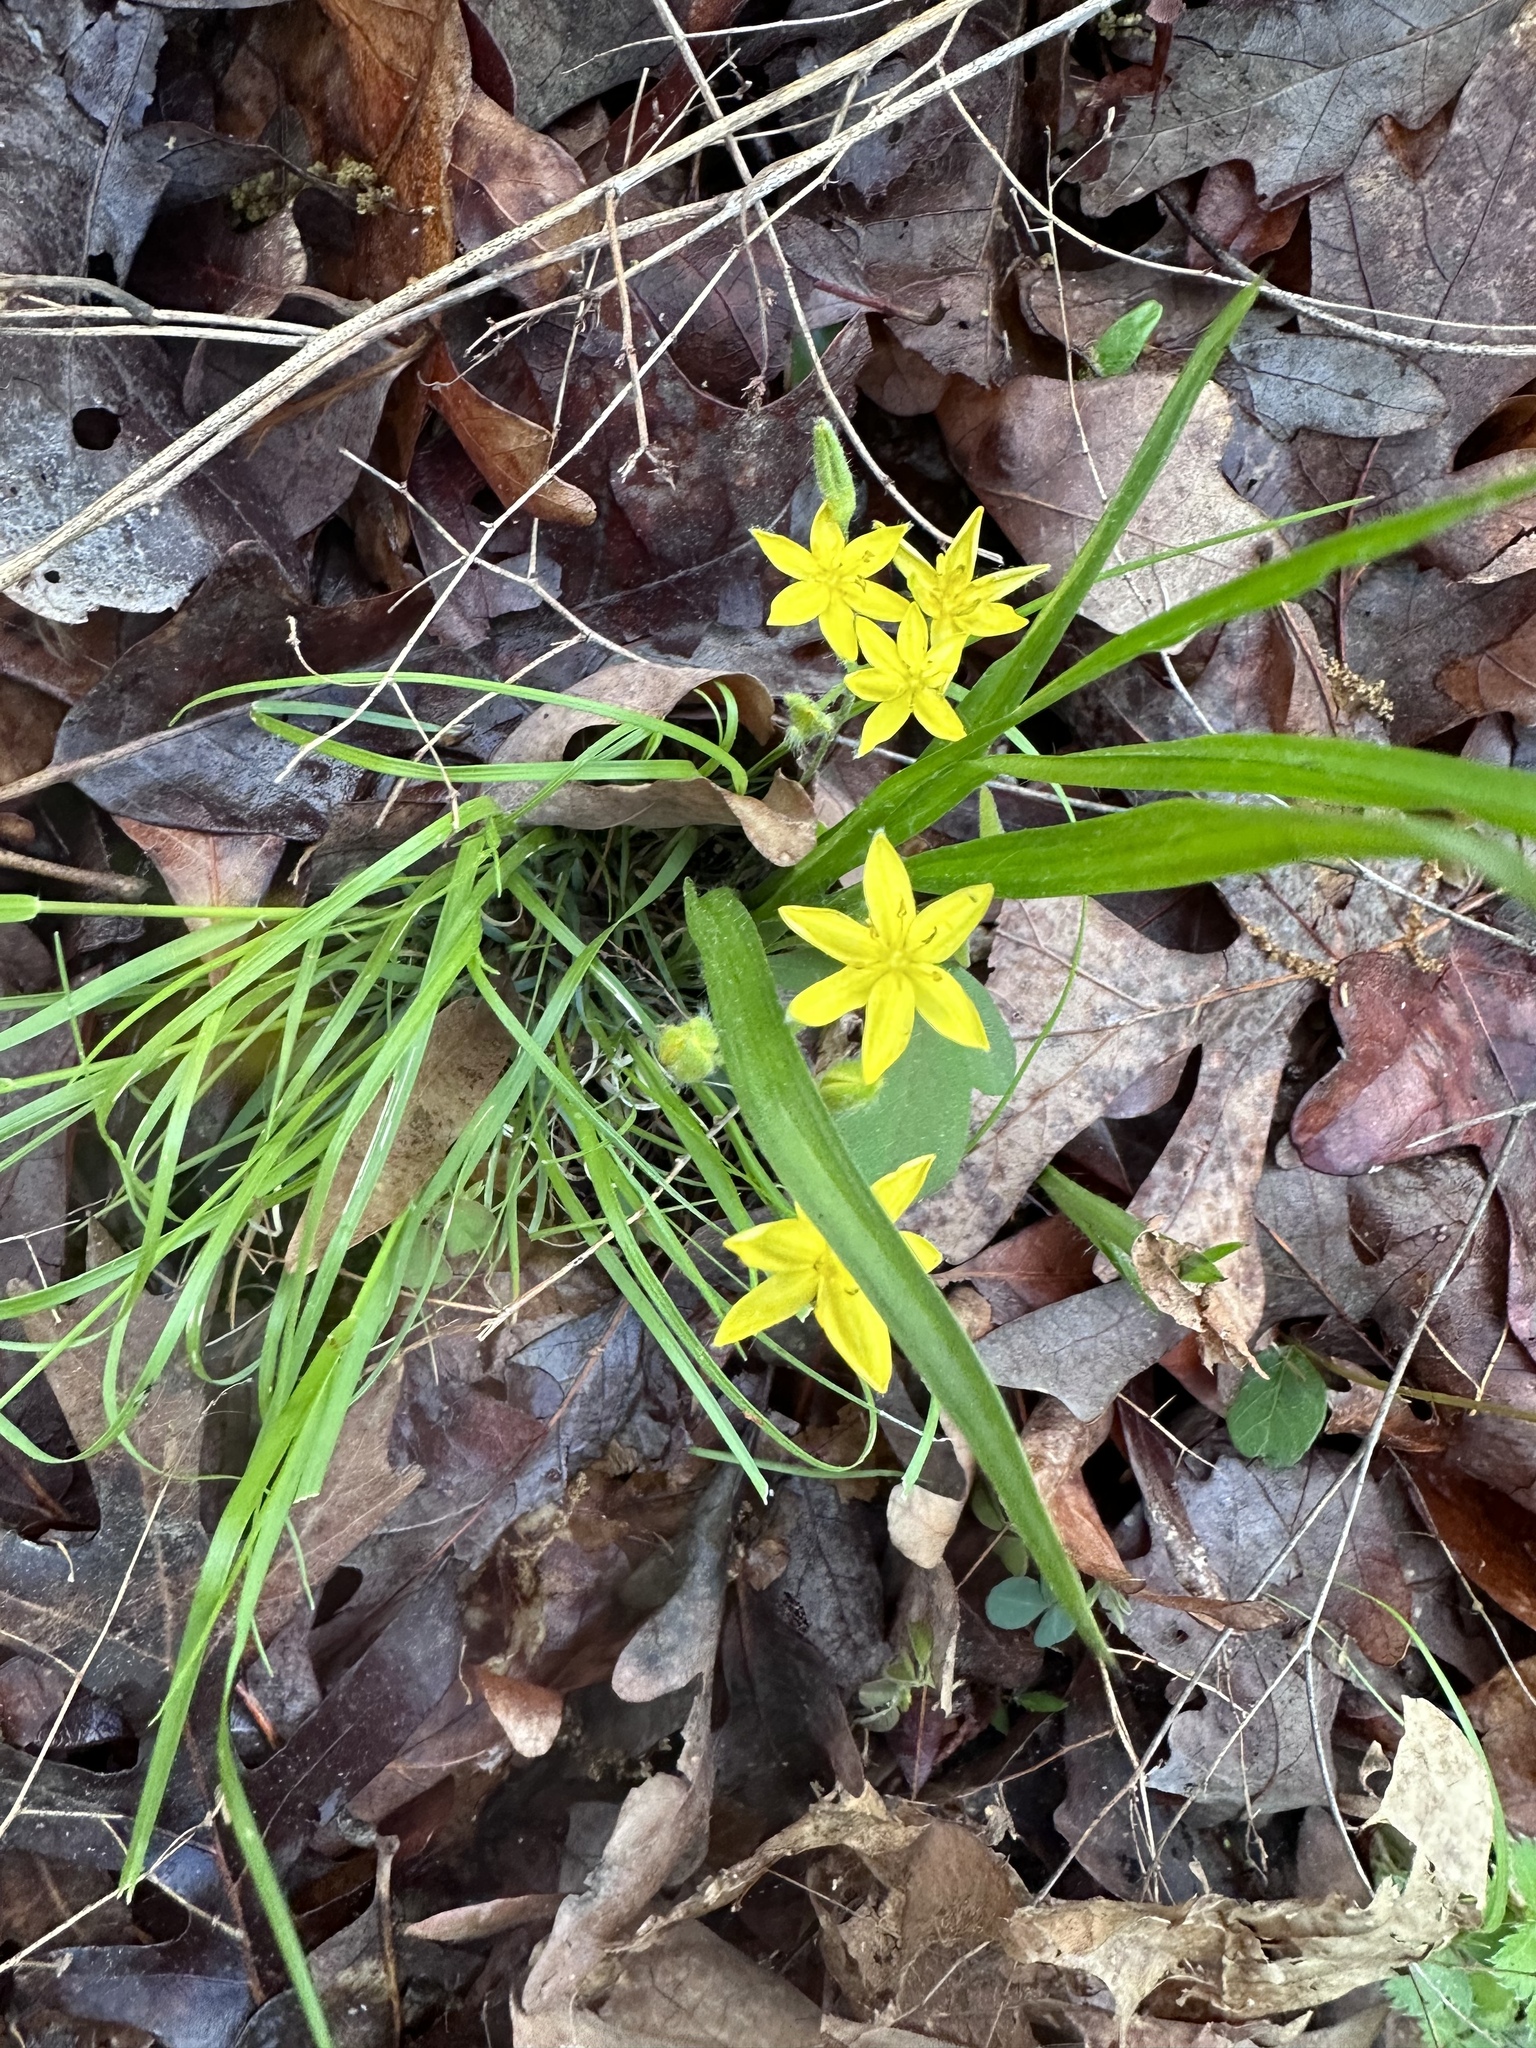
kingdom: Plantae
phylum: Tracheophyta
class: Liliopsida
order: Asparagales
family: Hypoxidaceae
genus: Hypoxis
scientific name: Hypoxis hirsuta
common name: Common goldstar
